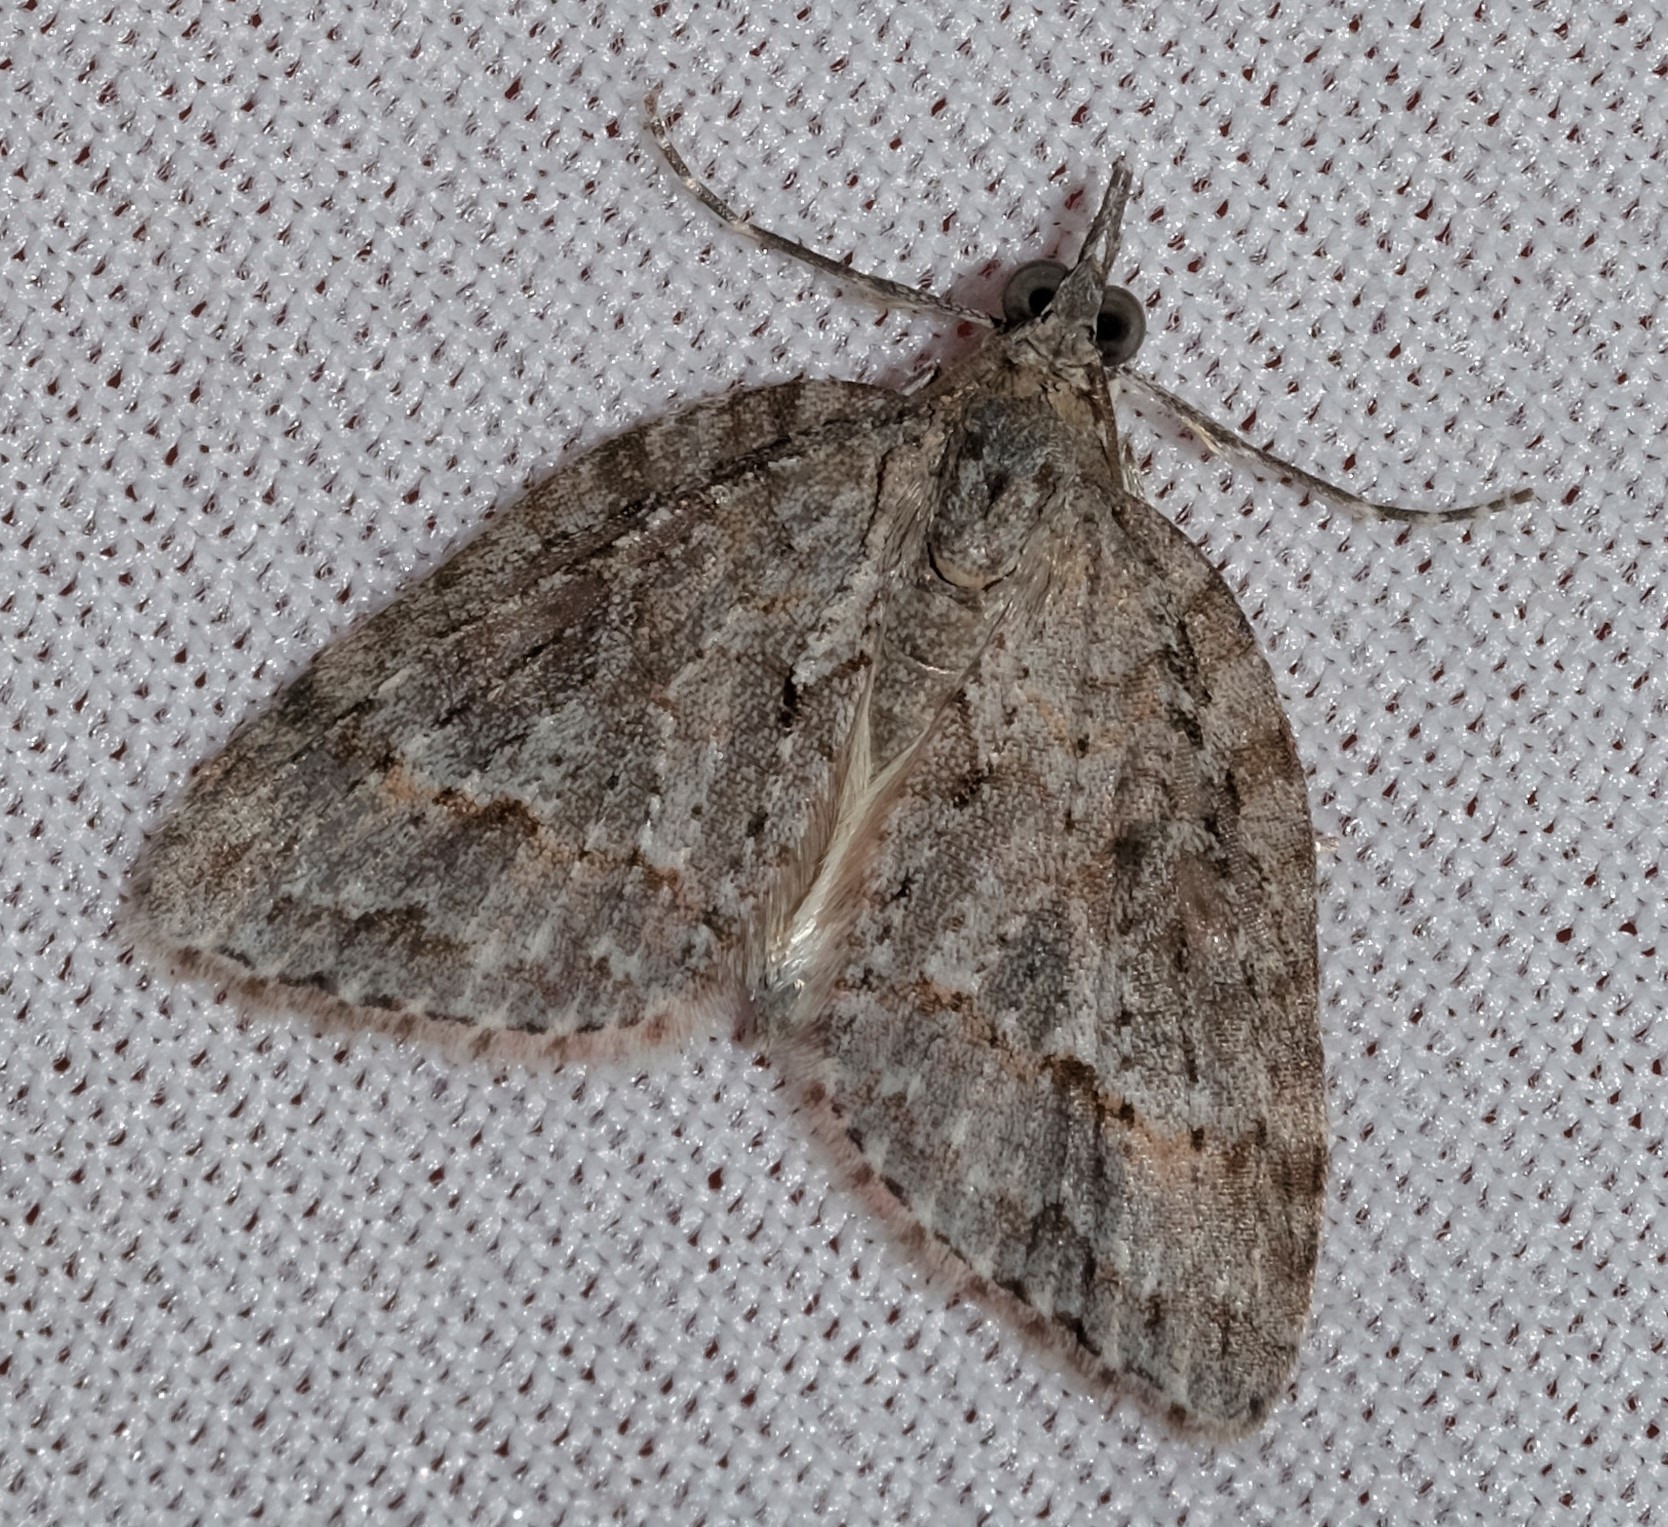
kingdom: Animalia
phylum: Arthropoda
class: Insecta
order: Lepidoptera
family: Geometridae
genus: Microdes
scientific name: Microdes villosata
